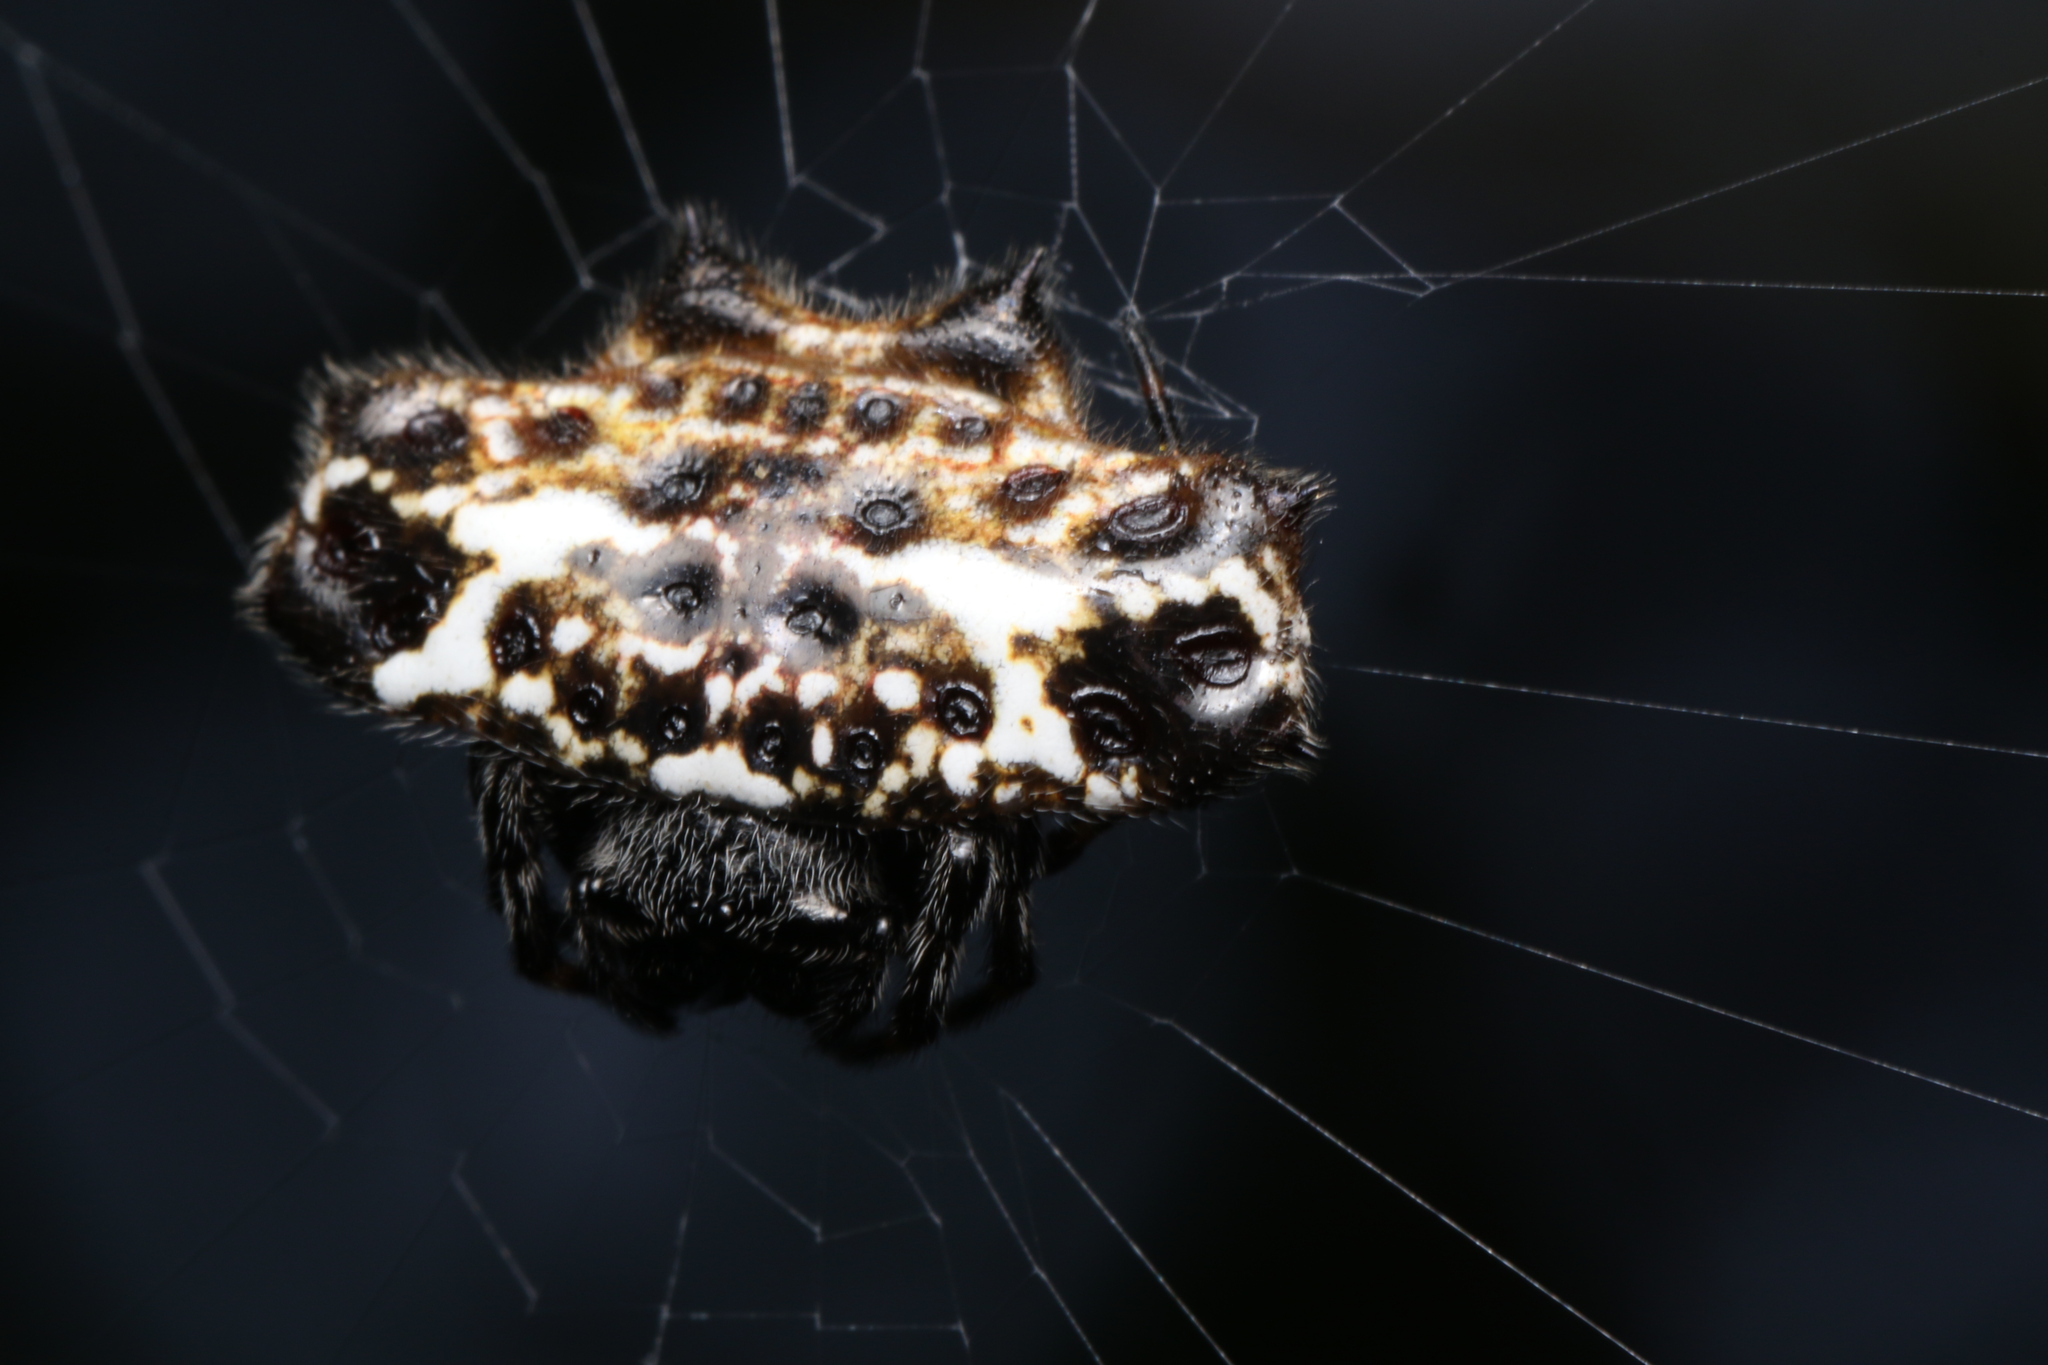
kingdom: Animalia
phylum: Arthropoda
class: Arachnida
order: Araneae
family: Araneidae
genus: Gasteracantha
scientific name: Gasteracantha cancriformis
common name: Orb weavers
